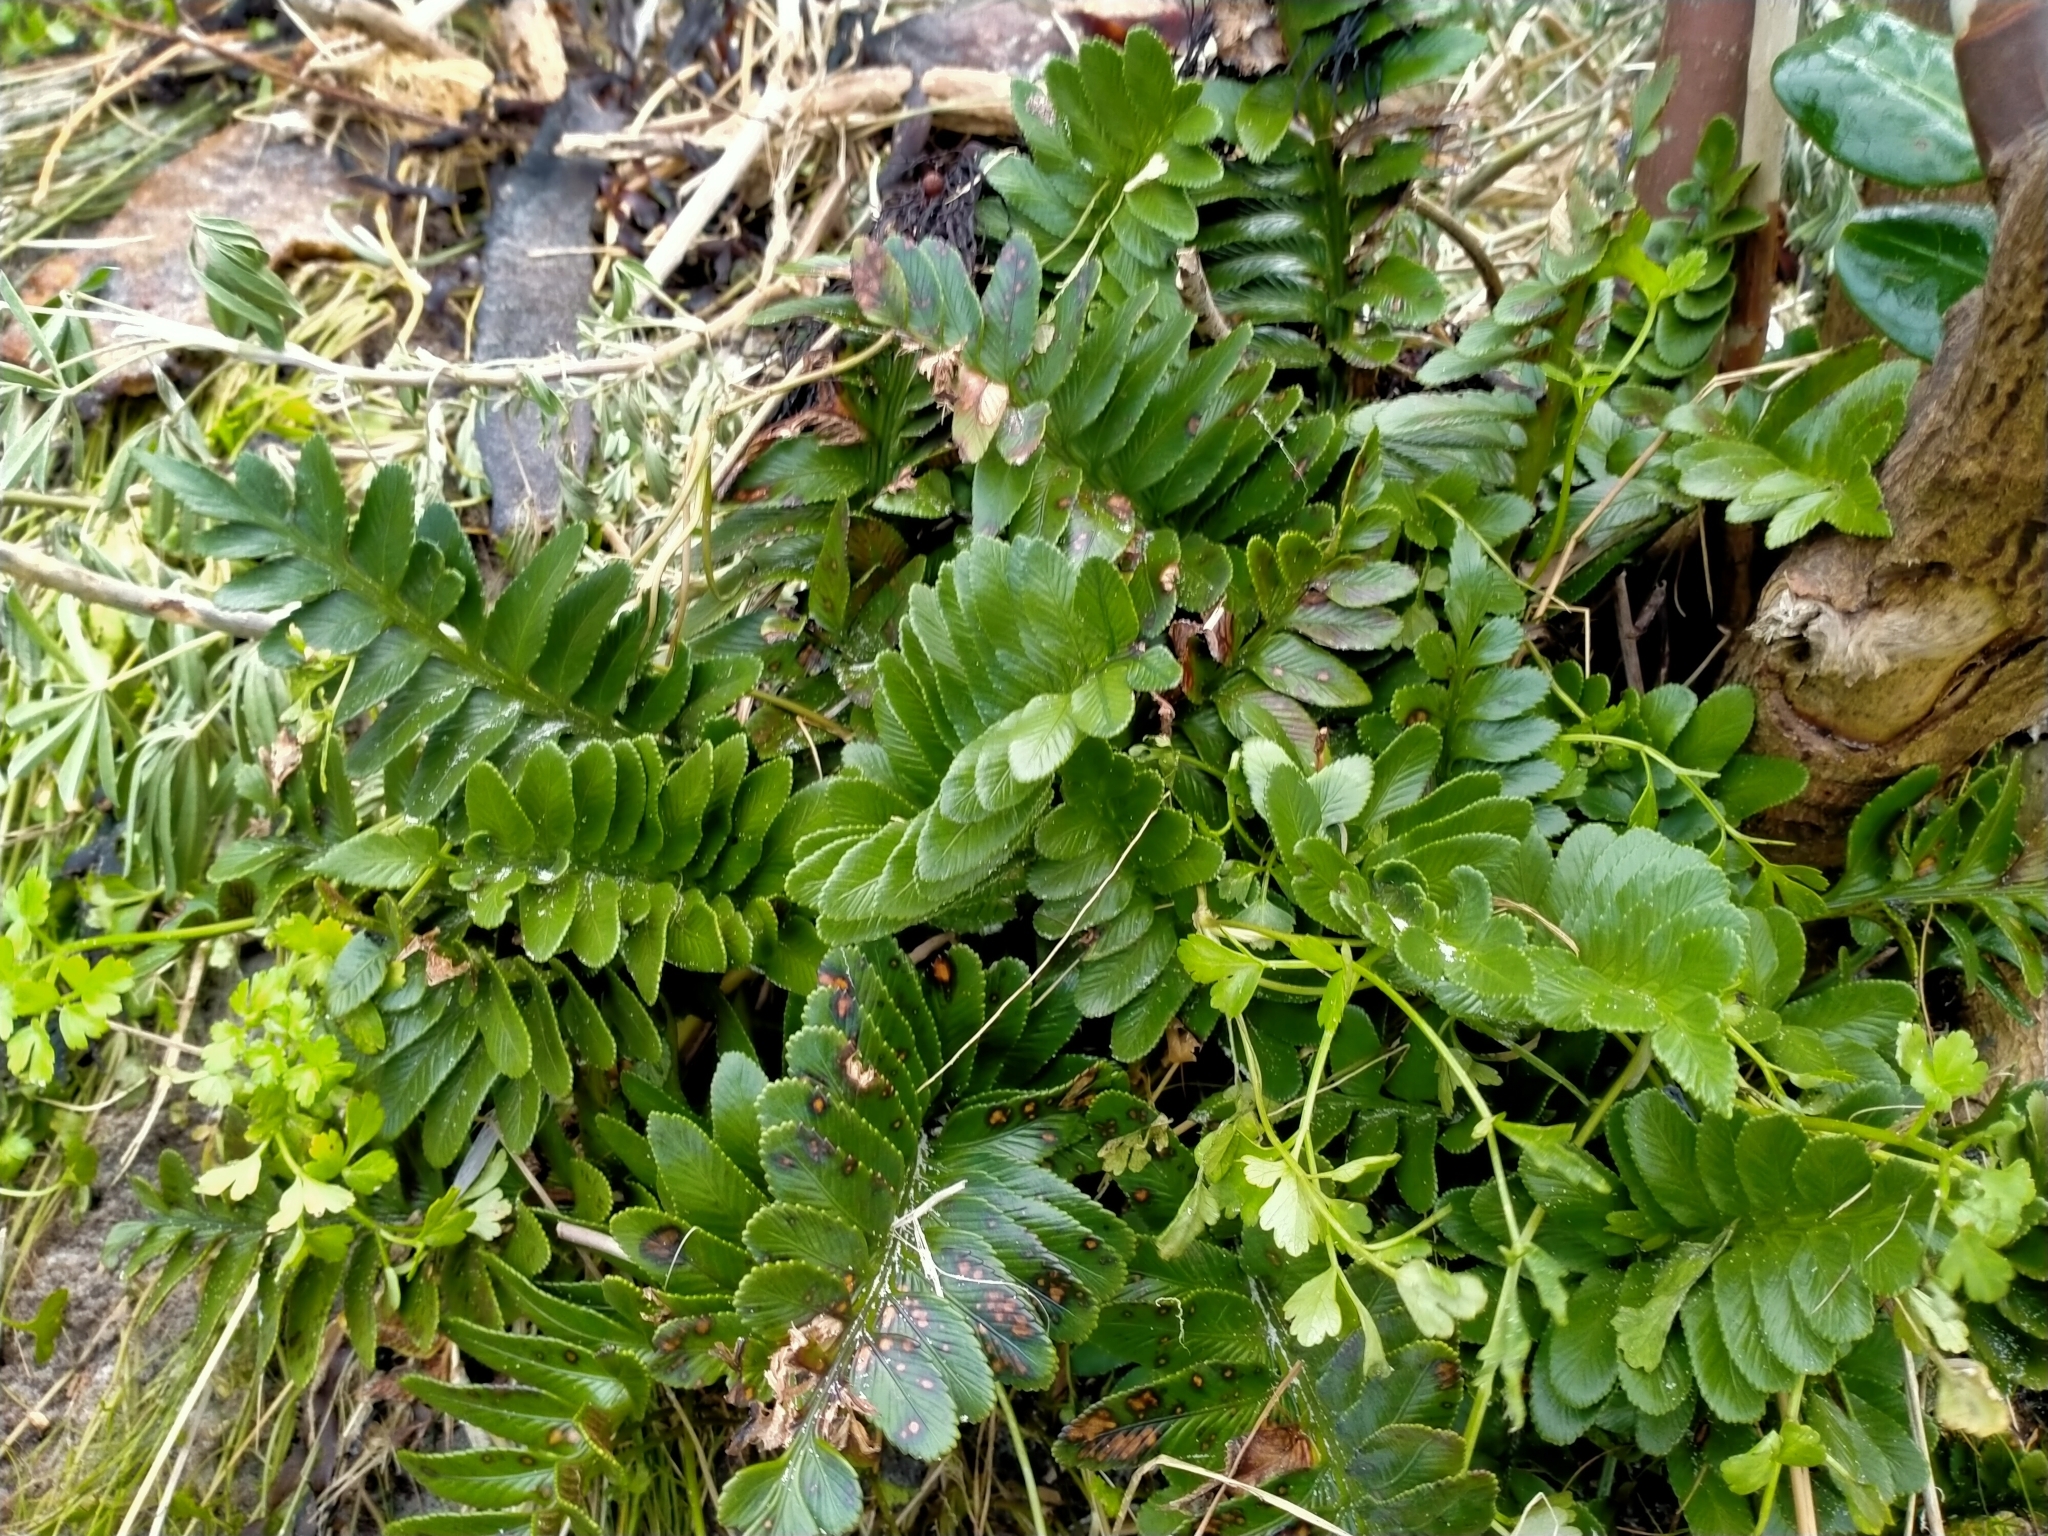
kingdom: Plantae
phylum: Tracheophyta
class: Polypodiopsida
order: Polypodiales
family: Aspleniaceae
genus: Asplenium
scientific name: Asplenium obtusatum
